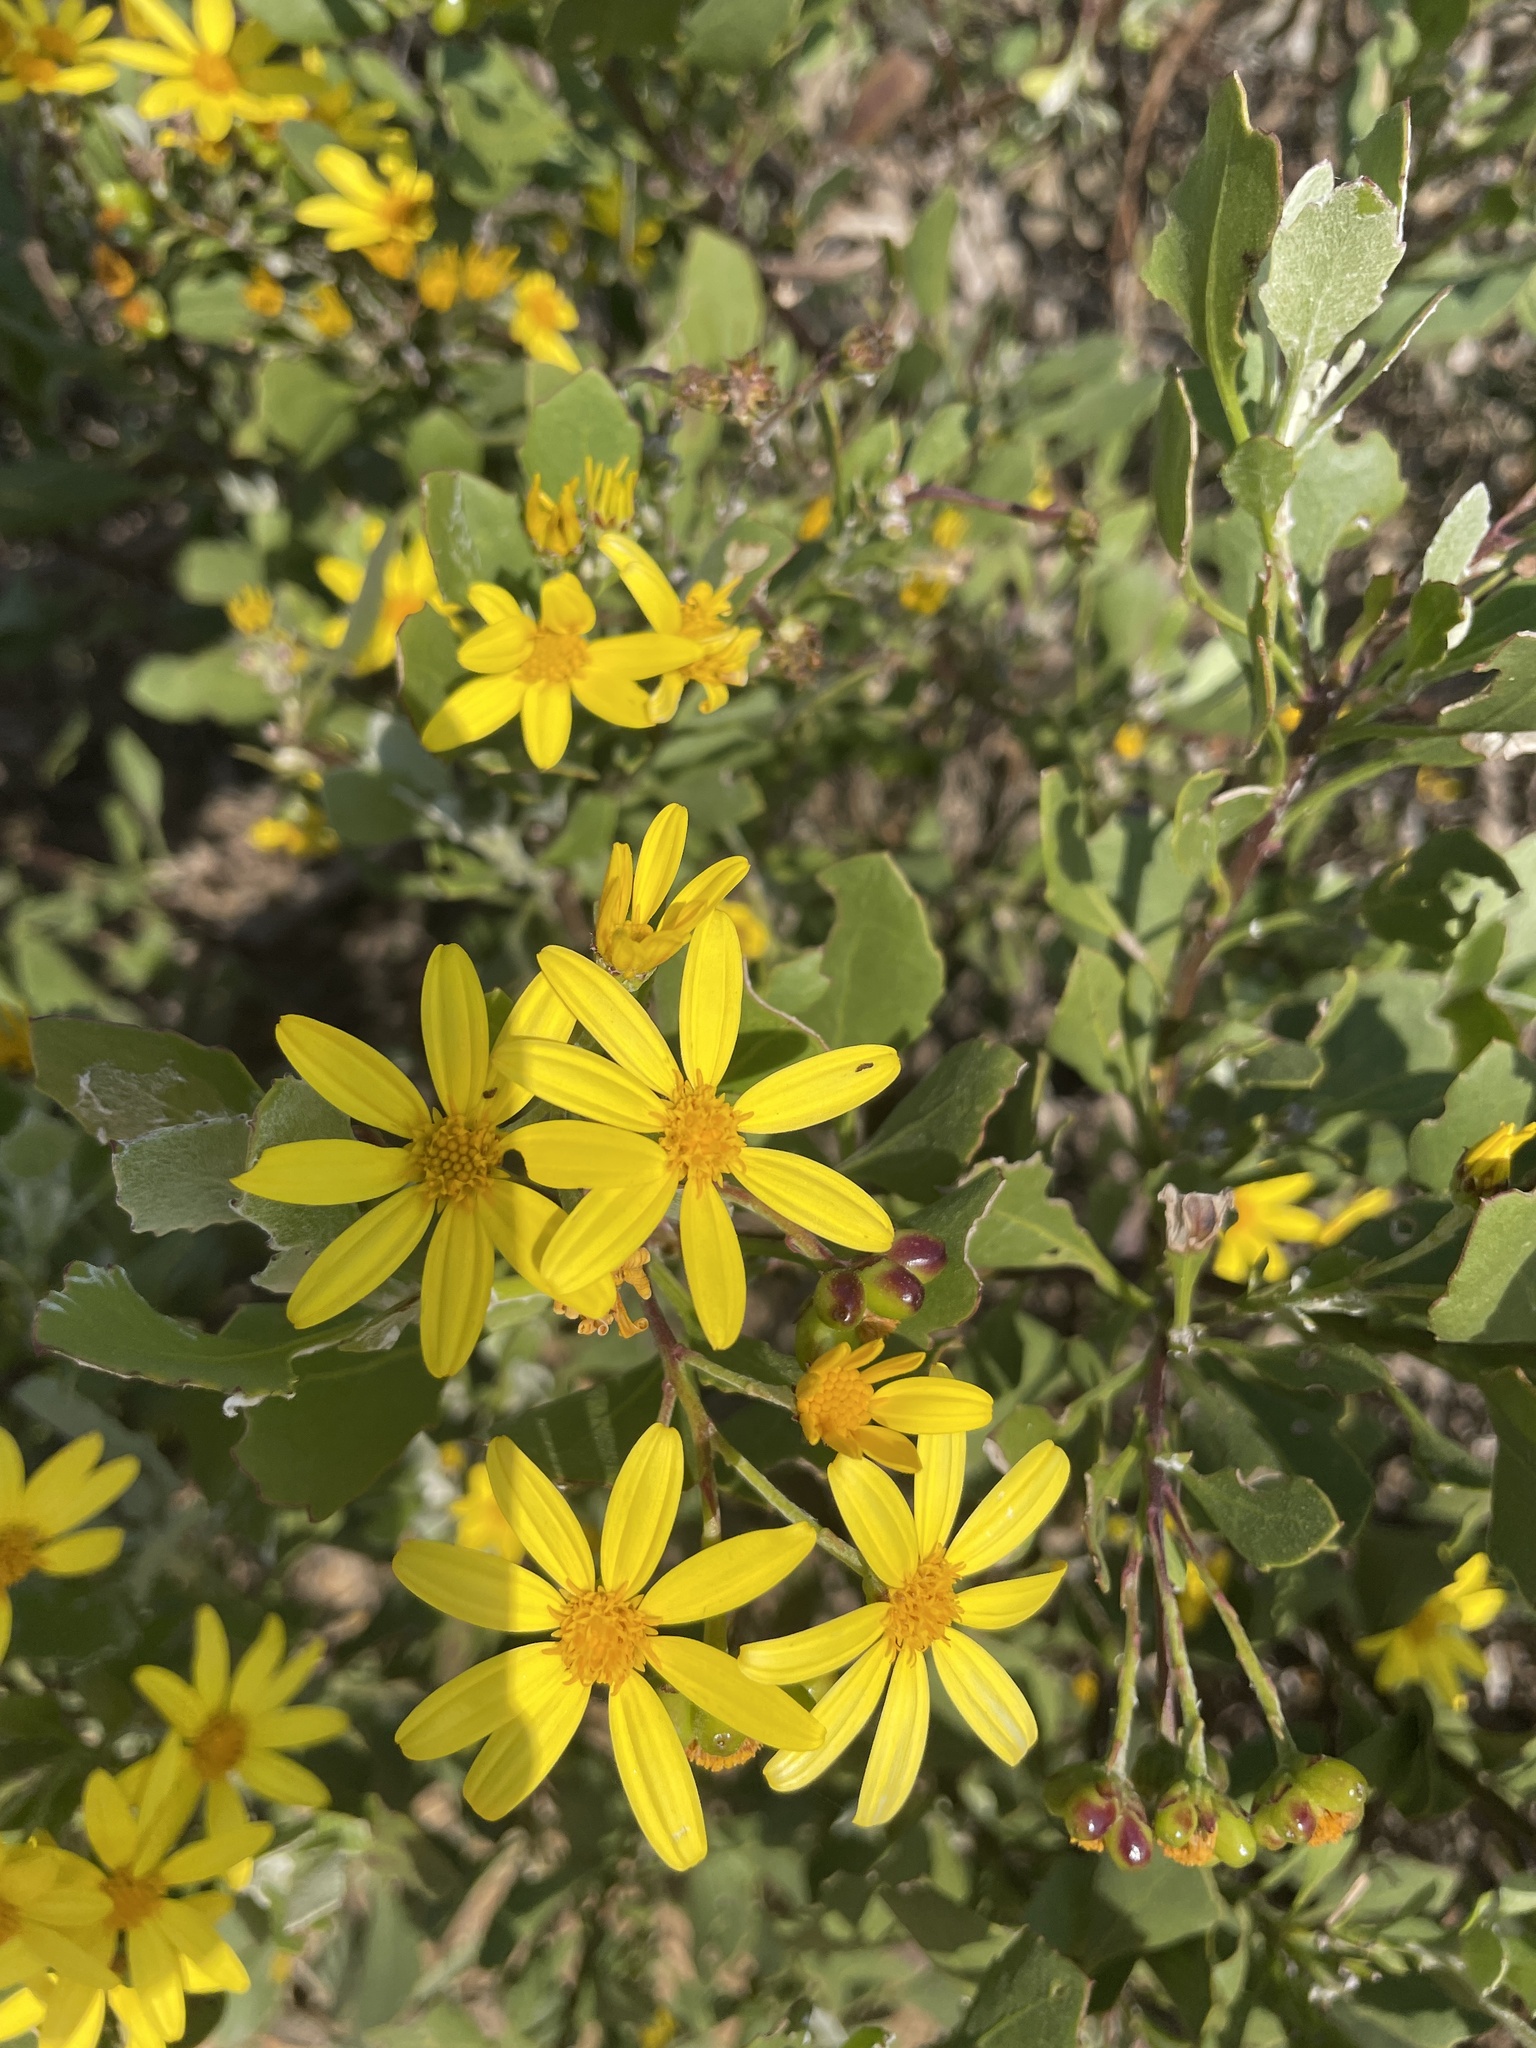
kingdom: Plantae
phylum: Tracheophyta
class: Magnoliopsida
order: Asterales
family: Asteraceae
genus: Osteospermum
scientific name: Osteospermum moniliferum
